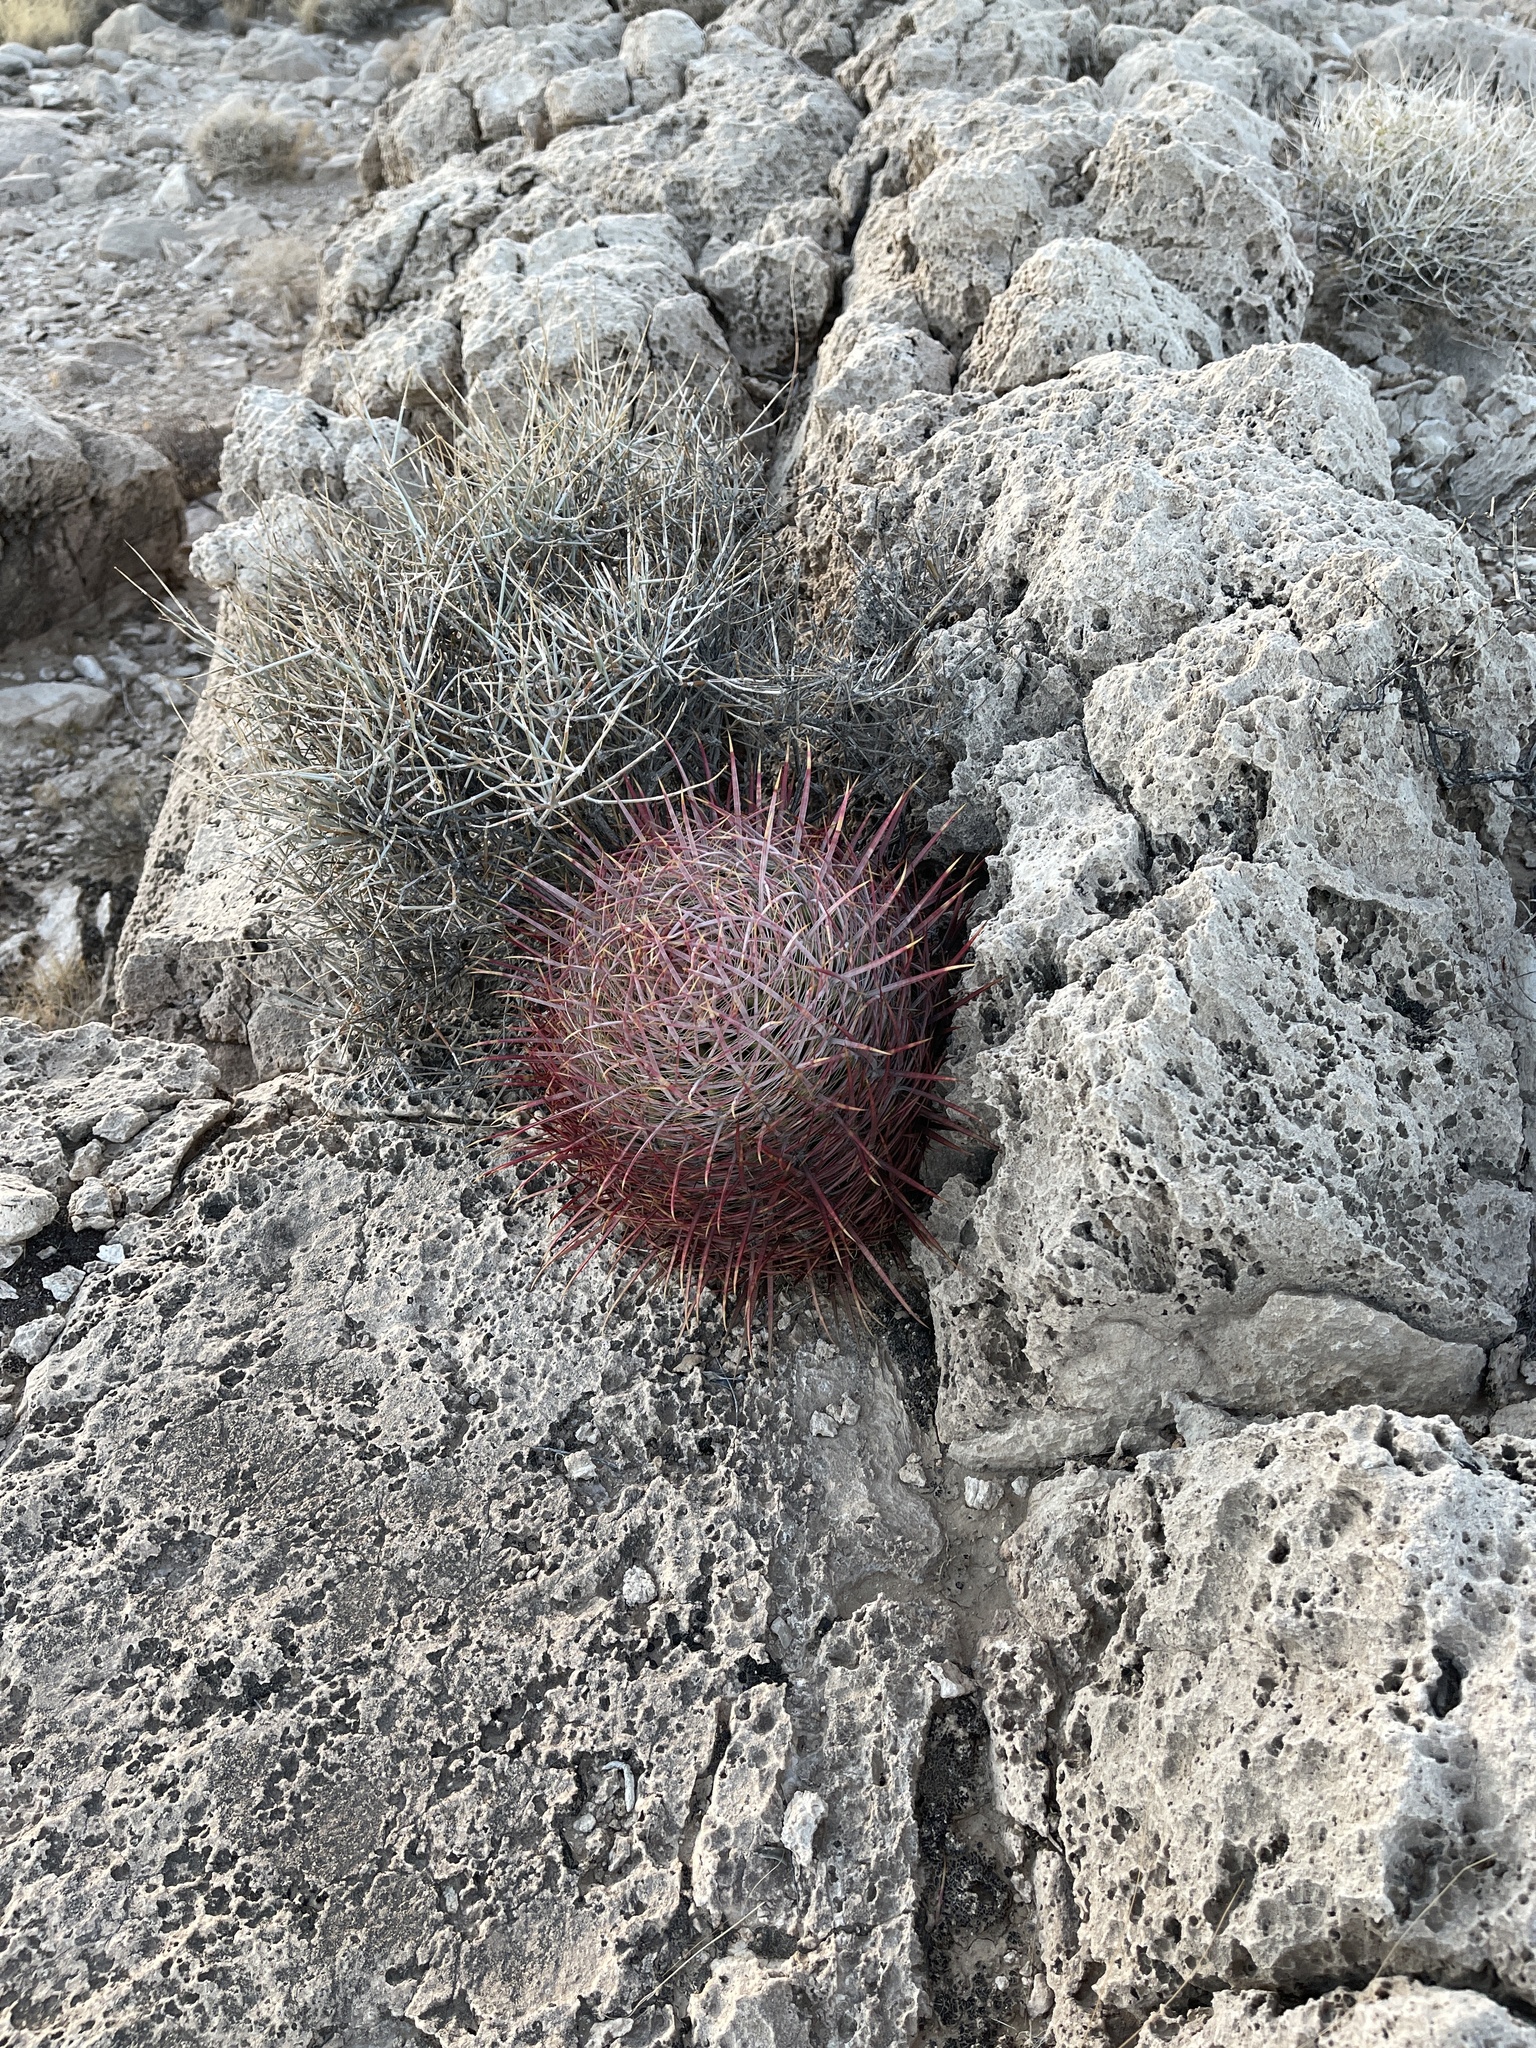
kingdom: Plantae
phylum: Tracheophyta
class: Magnoliopsida
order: Caryophyllales
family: Cactaceae
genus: Ferocactus
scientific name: Ferocactus cylindraceus
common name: California barrel cactus
